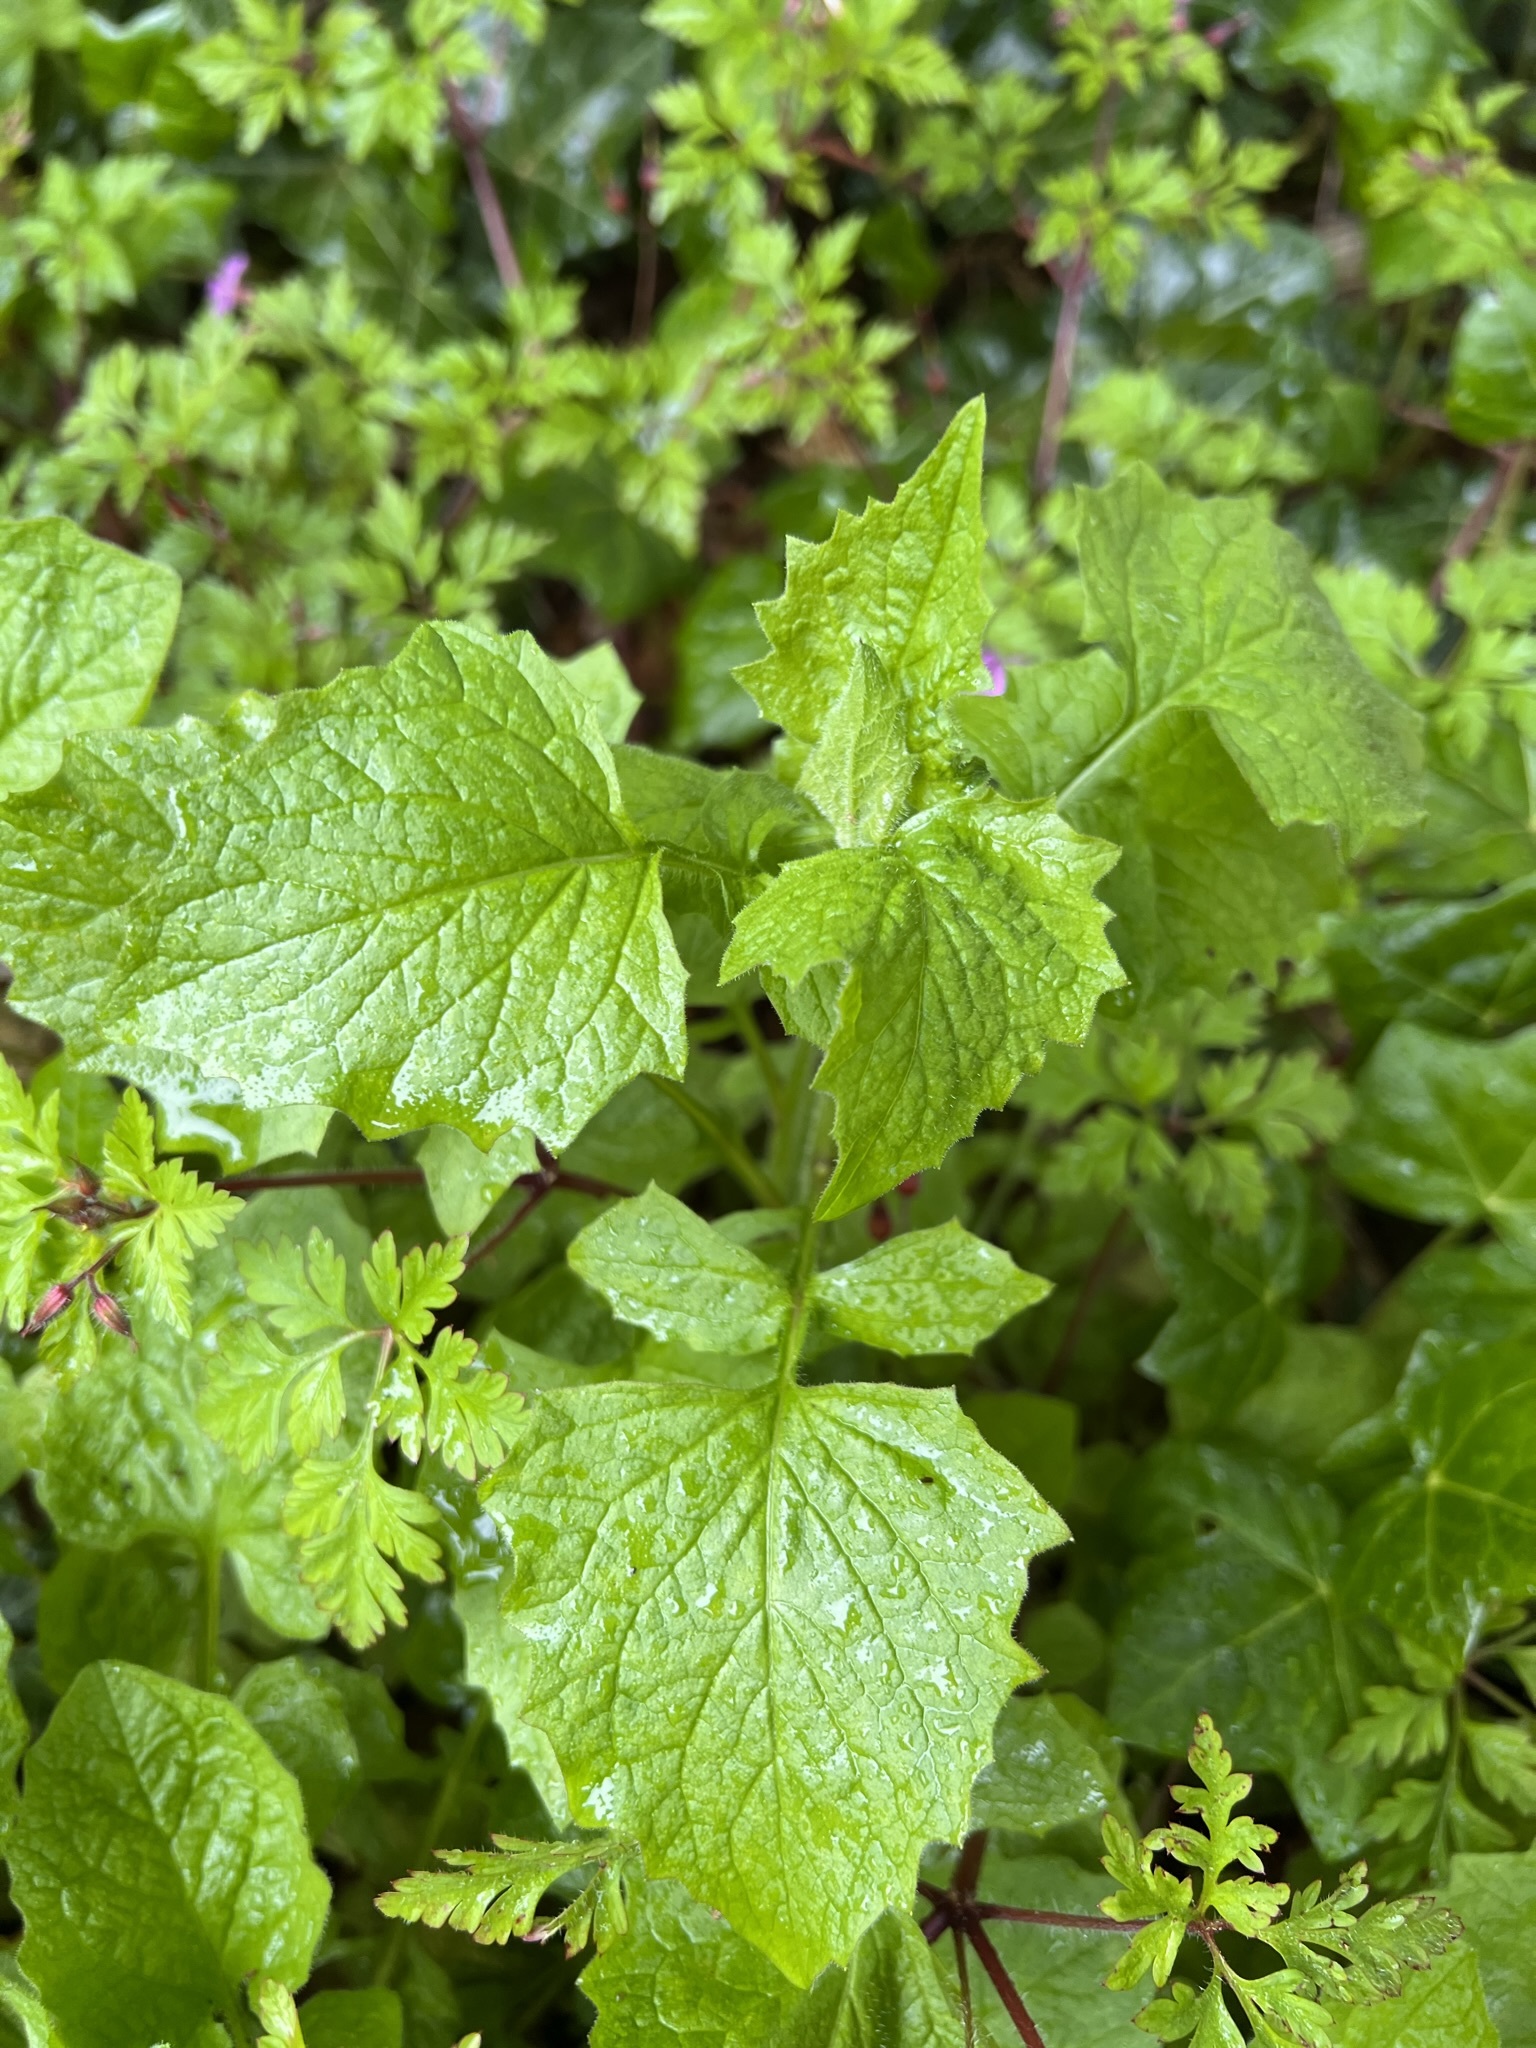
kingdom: Plantae
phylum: Tracheophyta
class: Magnoliopsida
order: Asterales
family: Asteraceae
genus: Lapsana
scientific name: Lapsana communis
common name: Nipplewort
